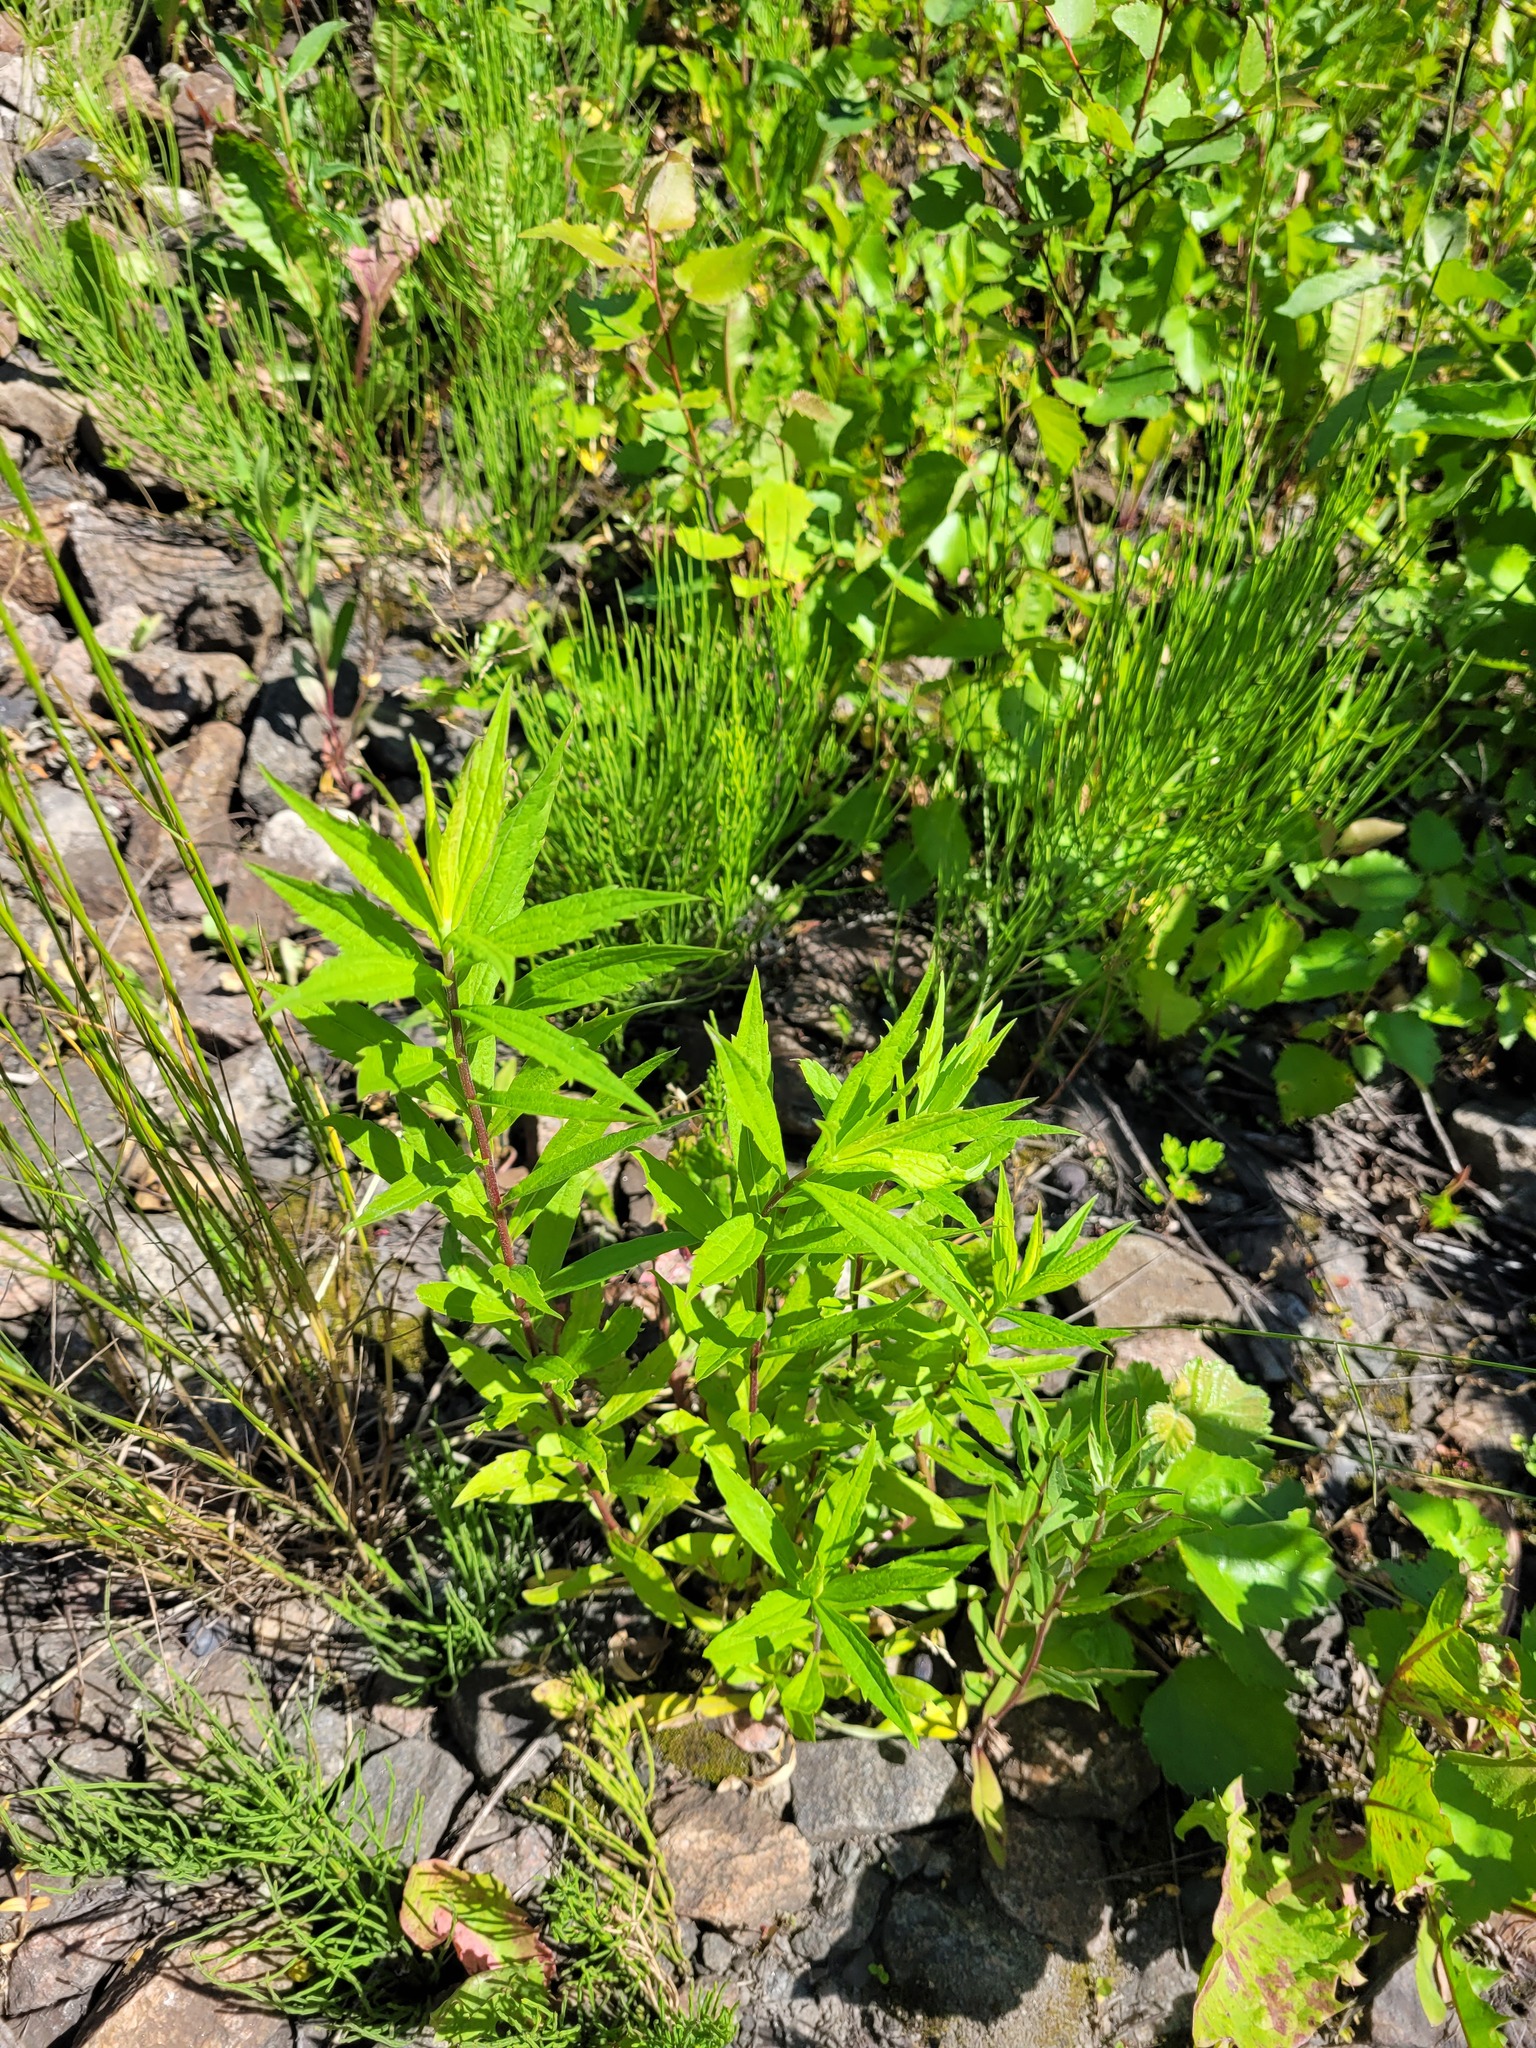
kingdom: Plantae
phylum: Tracheophyta
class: Magnoliopsida
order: Asterales
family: Asteraceae
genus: Solidago
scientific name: Solidago canadensis
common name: Canada goldenrod
